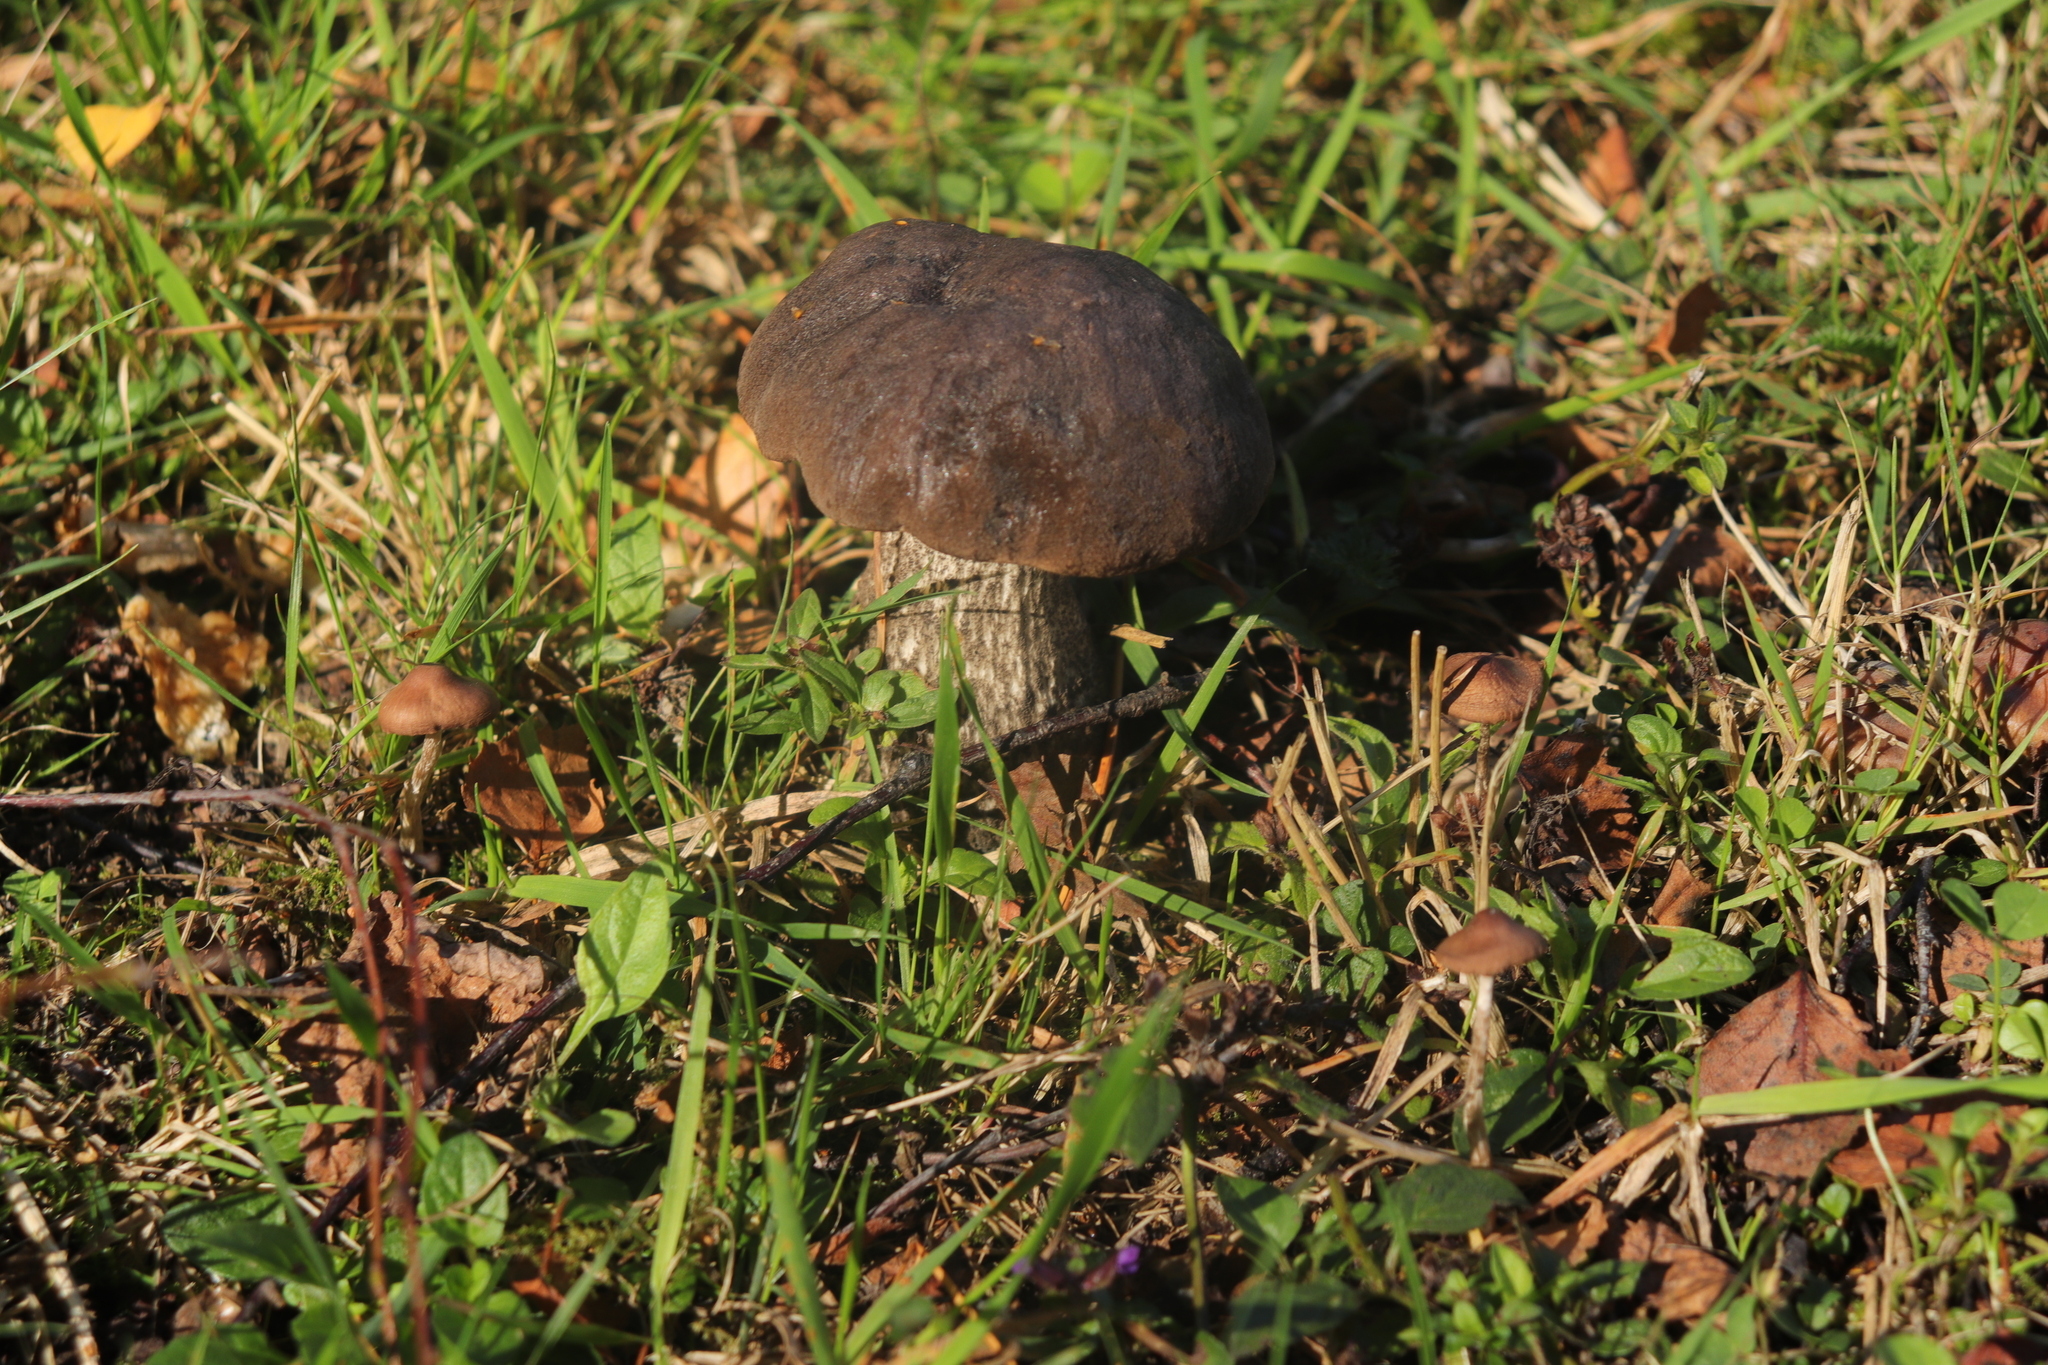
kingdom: Fungi
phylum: Basidiomycota
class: Agaricomycetes
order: Boletales
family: Boletaceae
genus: Leccinum
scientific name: Leccinum scabrum
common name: Blushing bolete
